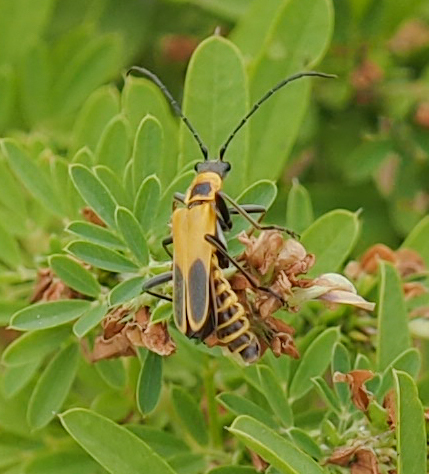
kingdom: Animalia
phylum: Arthropoda
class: Insecta
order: Coleoptera
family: Cantharidae
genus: Chauliognathus
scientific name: Chauliognathus pensylvanicus
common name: Goldenrod soldier beetle
